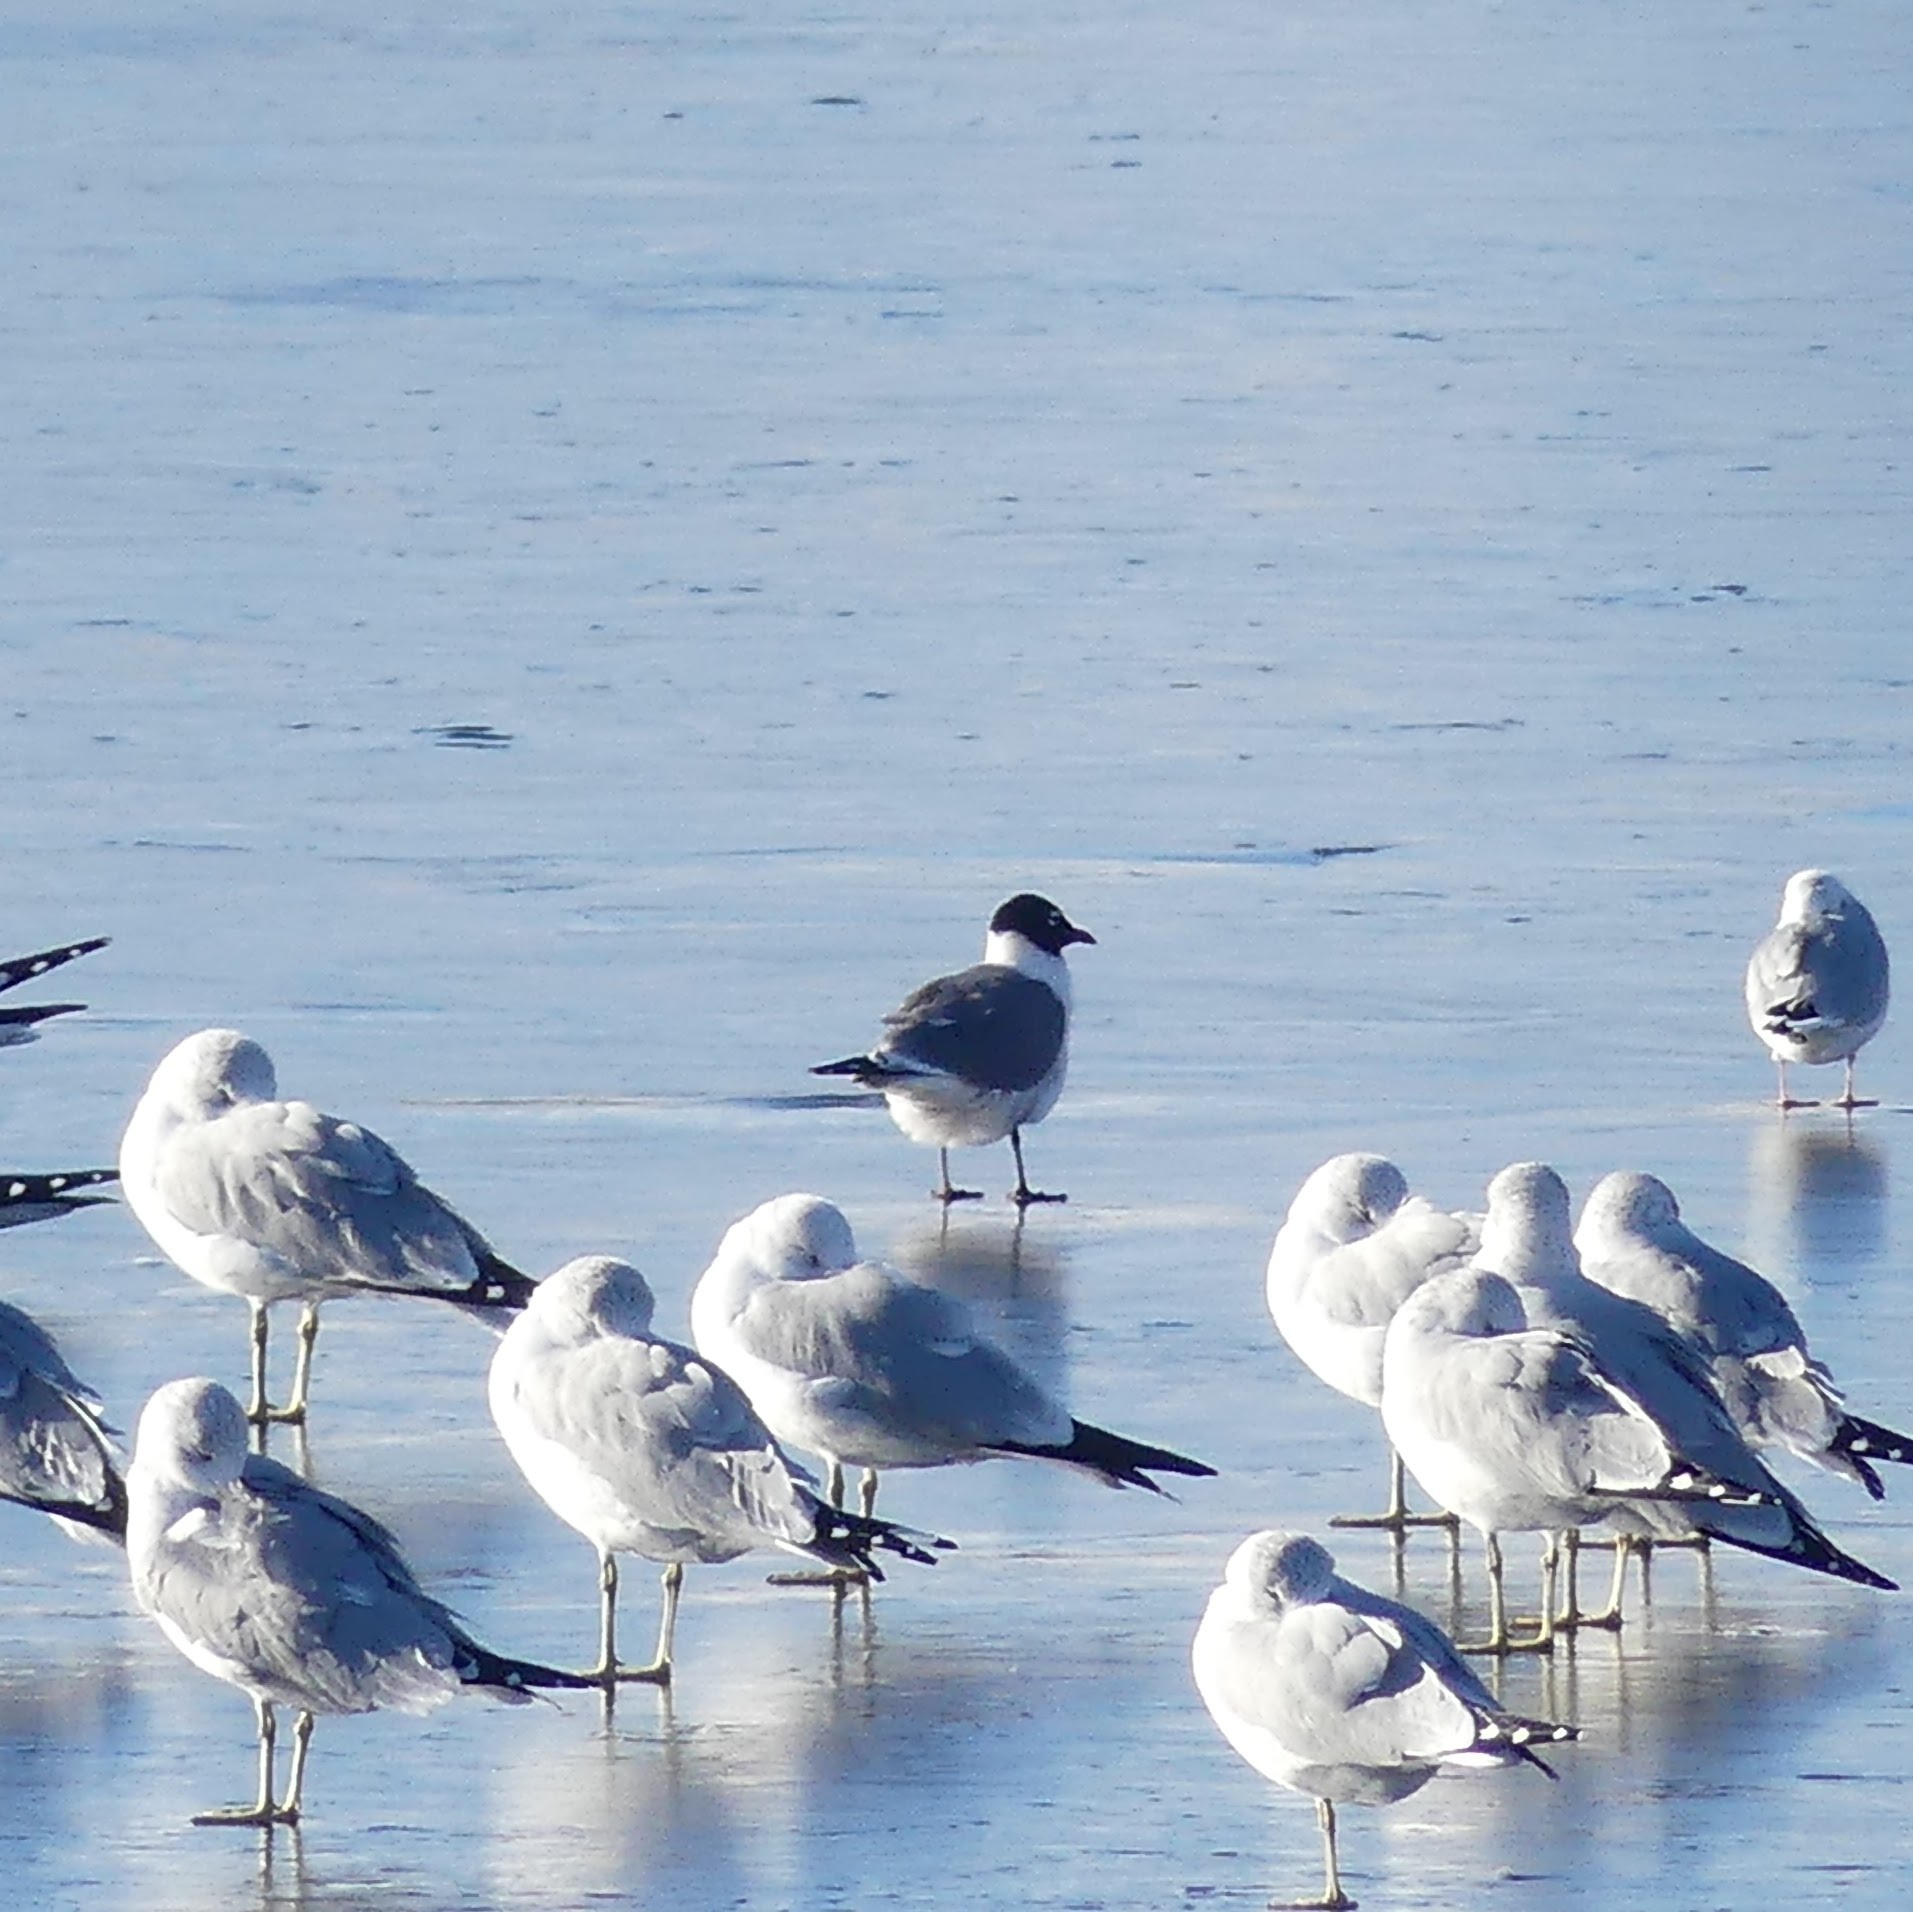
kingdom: Animalia
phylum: Chordata
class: Aves
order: Charadriiformes
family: Laridae
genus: Leucophaeus
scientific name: Leucophaeus pipixcan
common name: Franklin's gull
